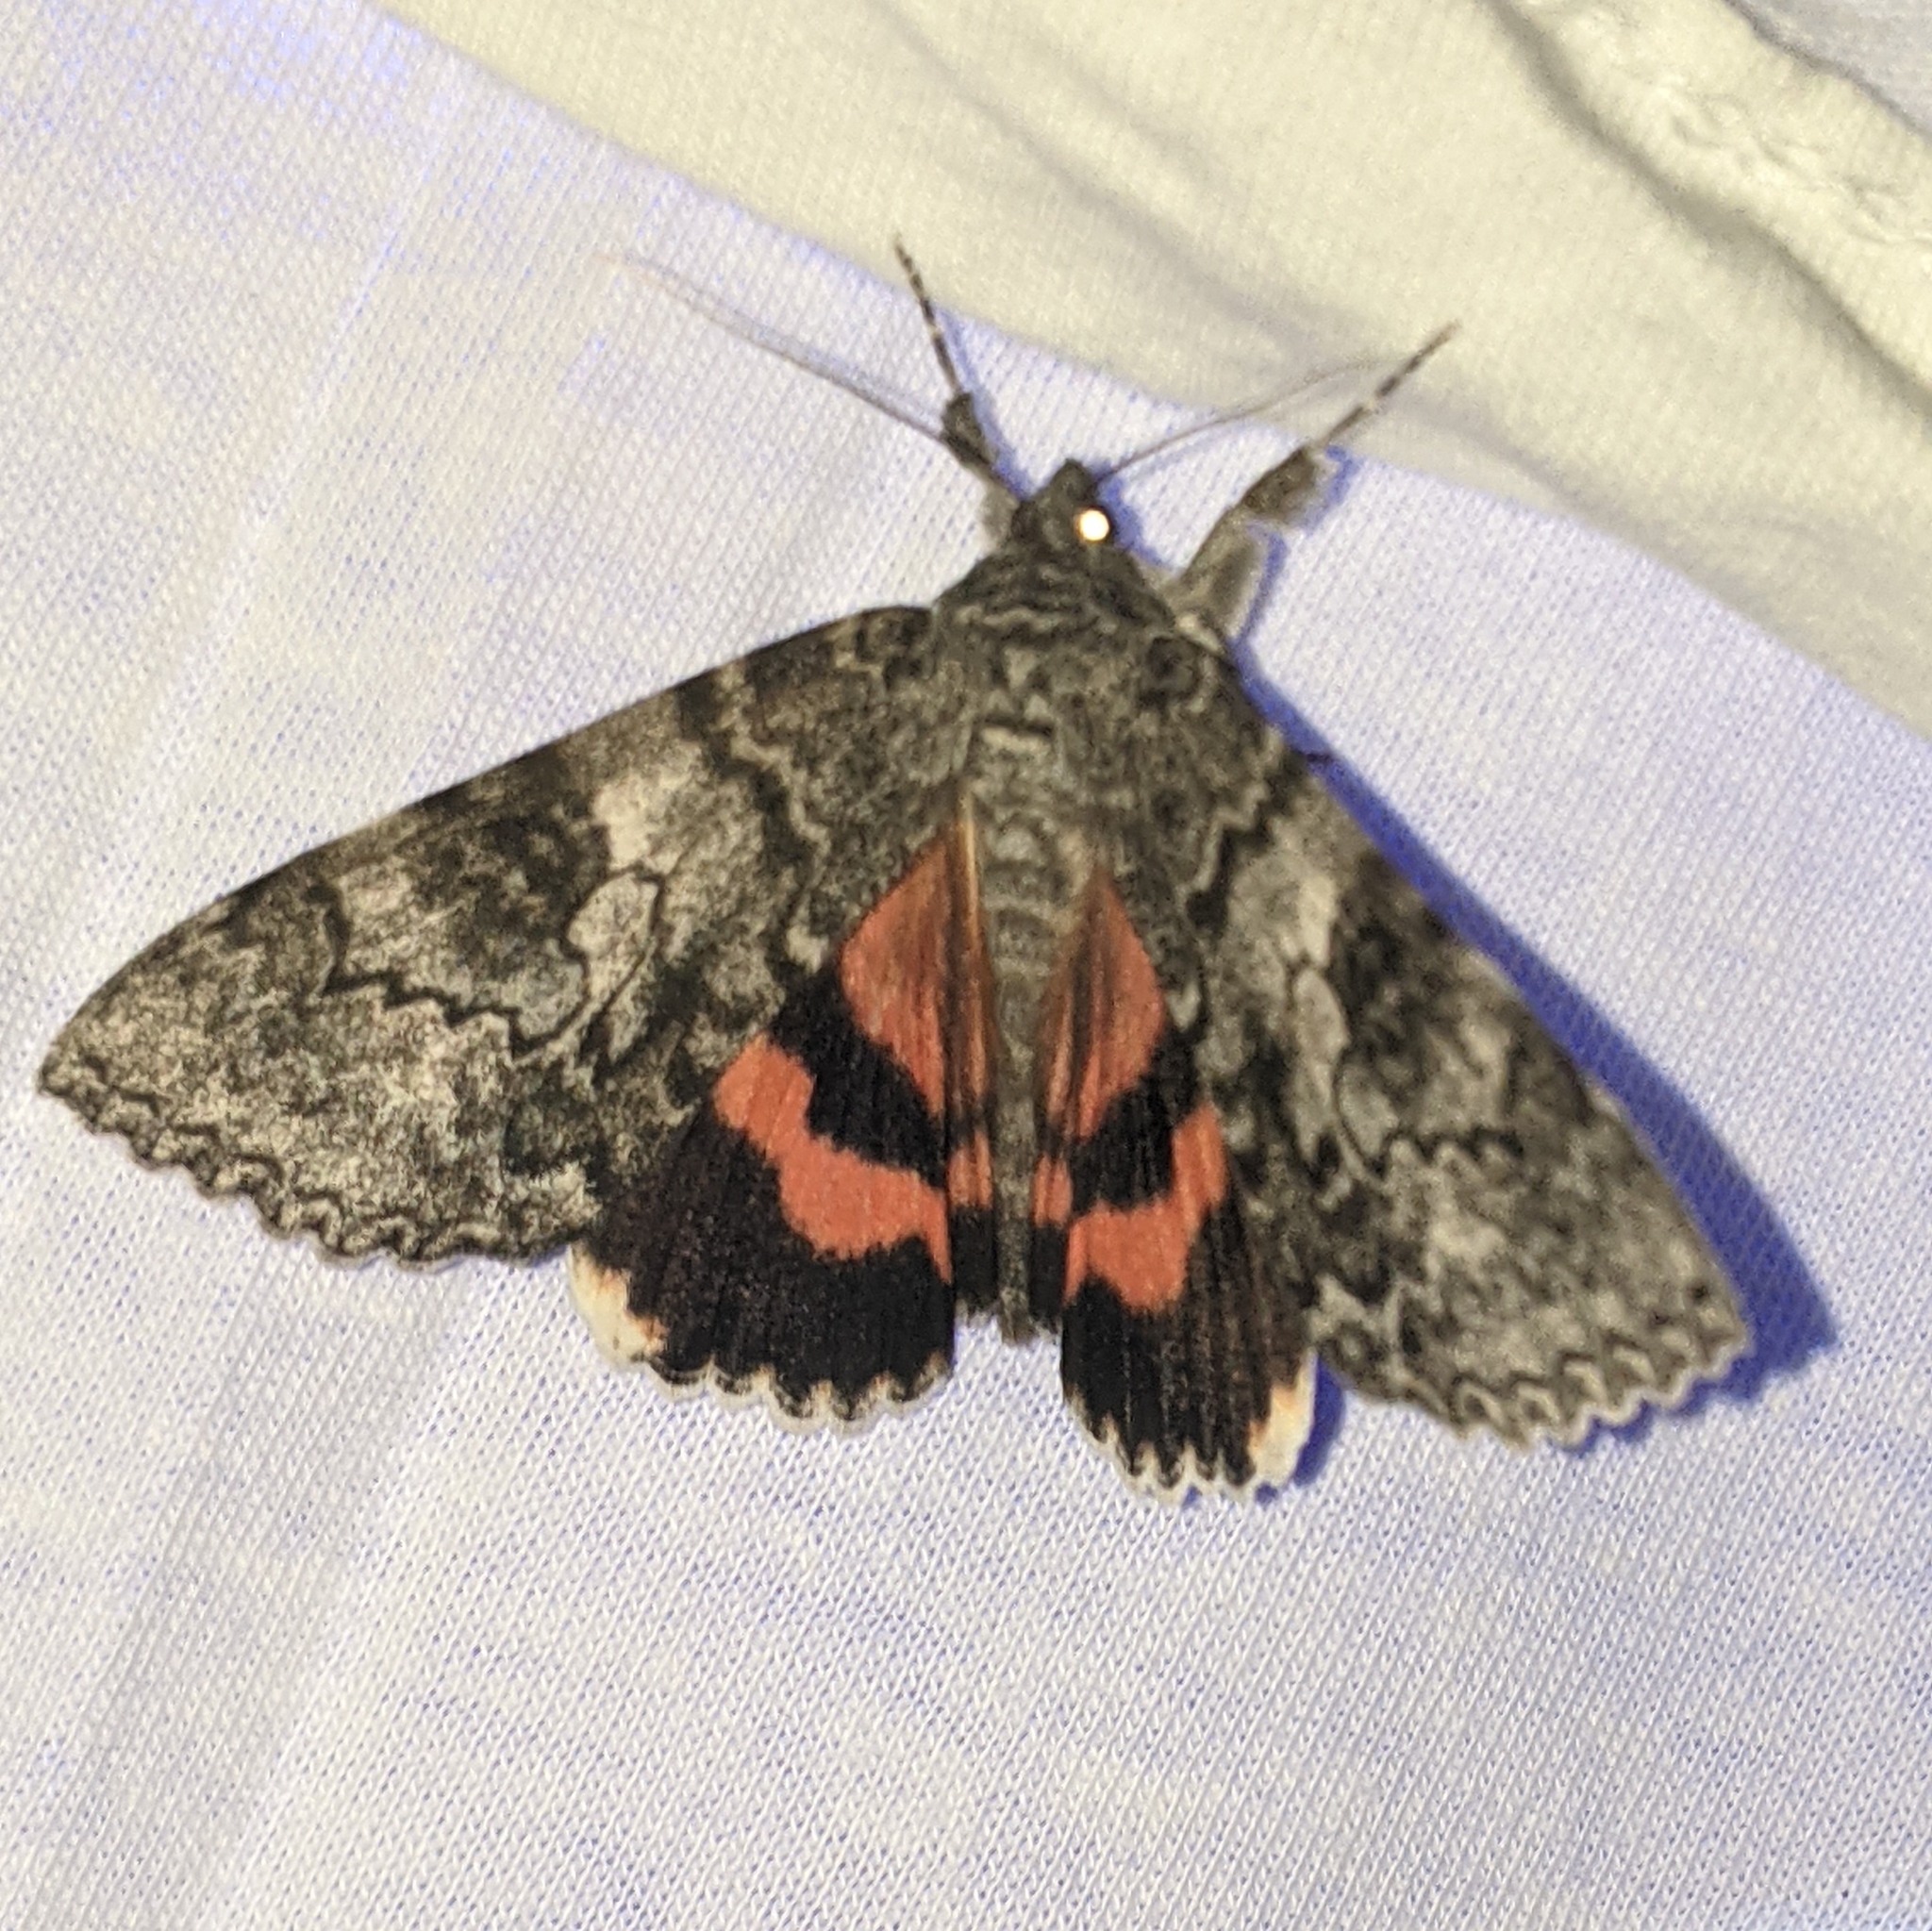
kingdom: Animalia
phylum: Arthropoda
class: Insecta
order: Lepidoptera
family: Erebidae
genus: Catocala
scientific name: Catocala unijuga
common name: Once-married underwing
